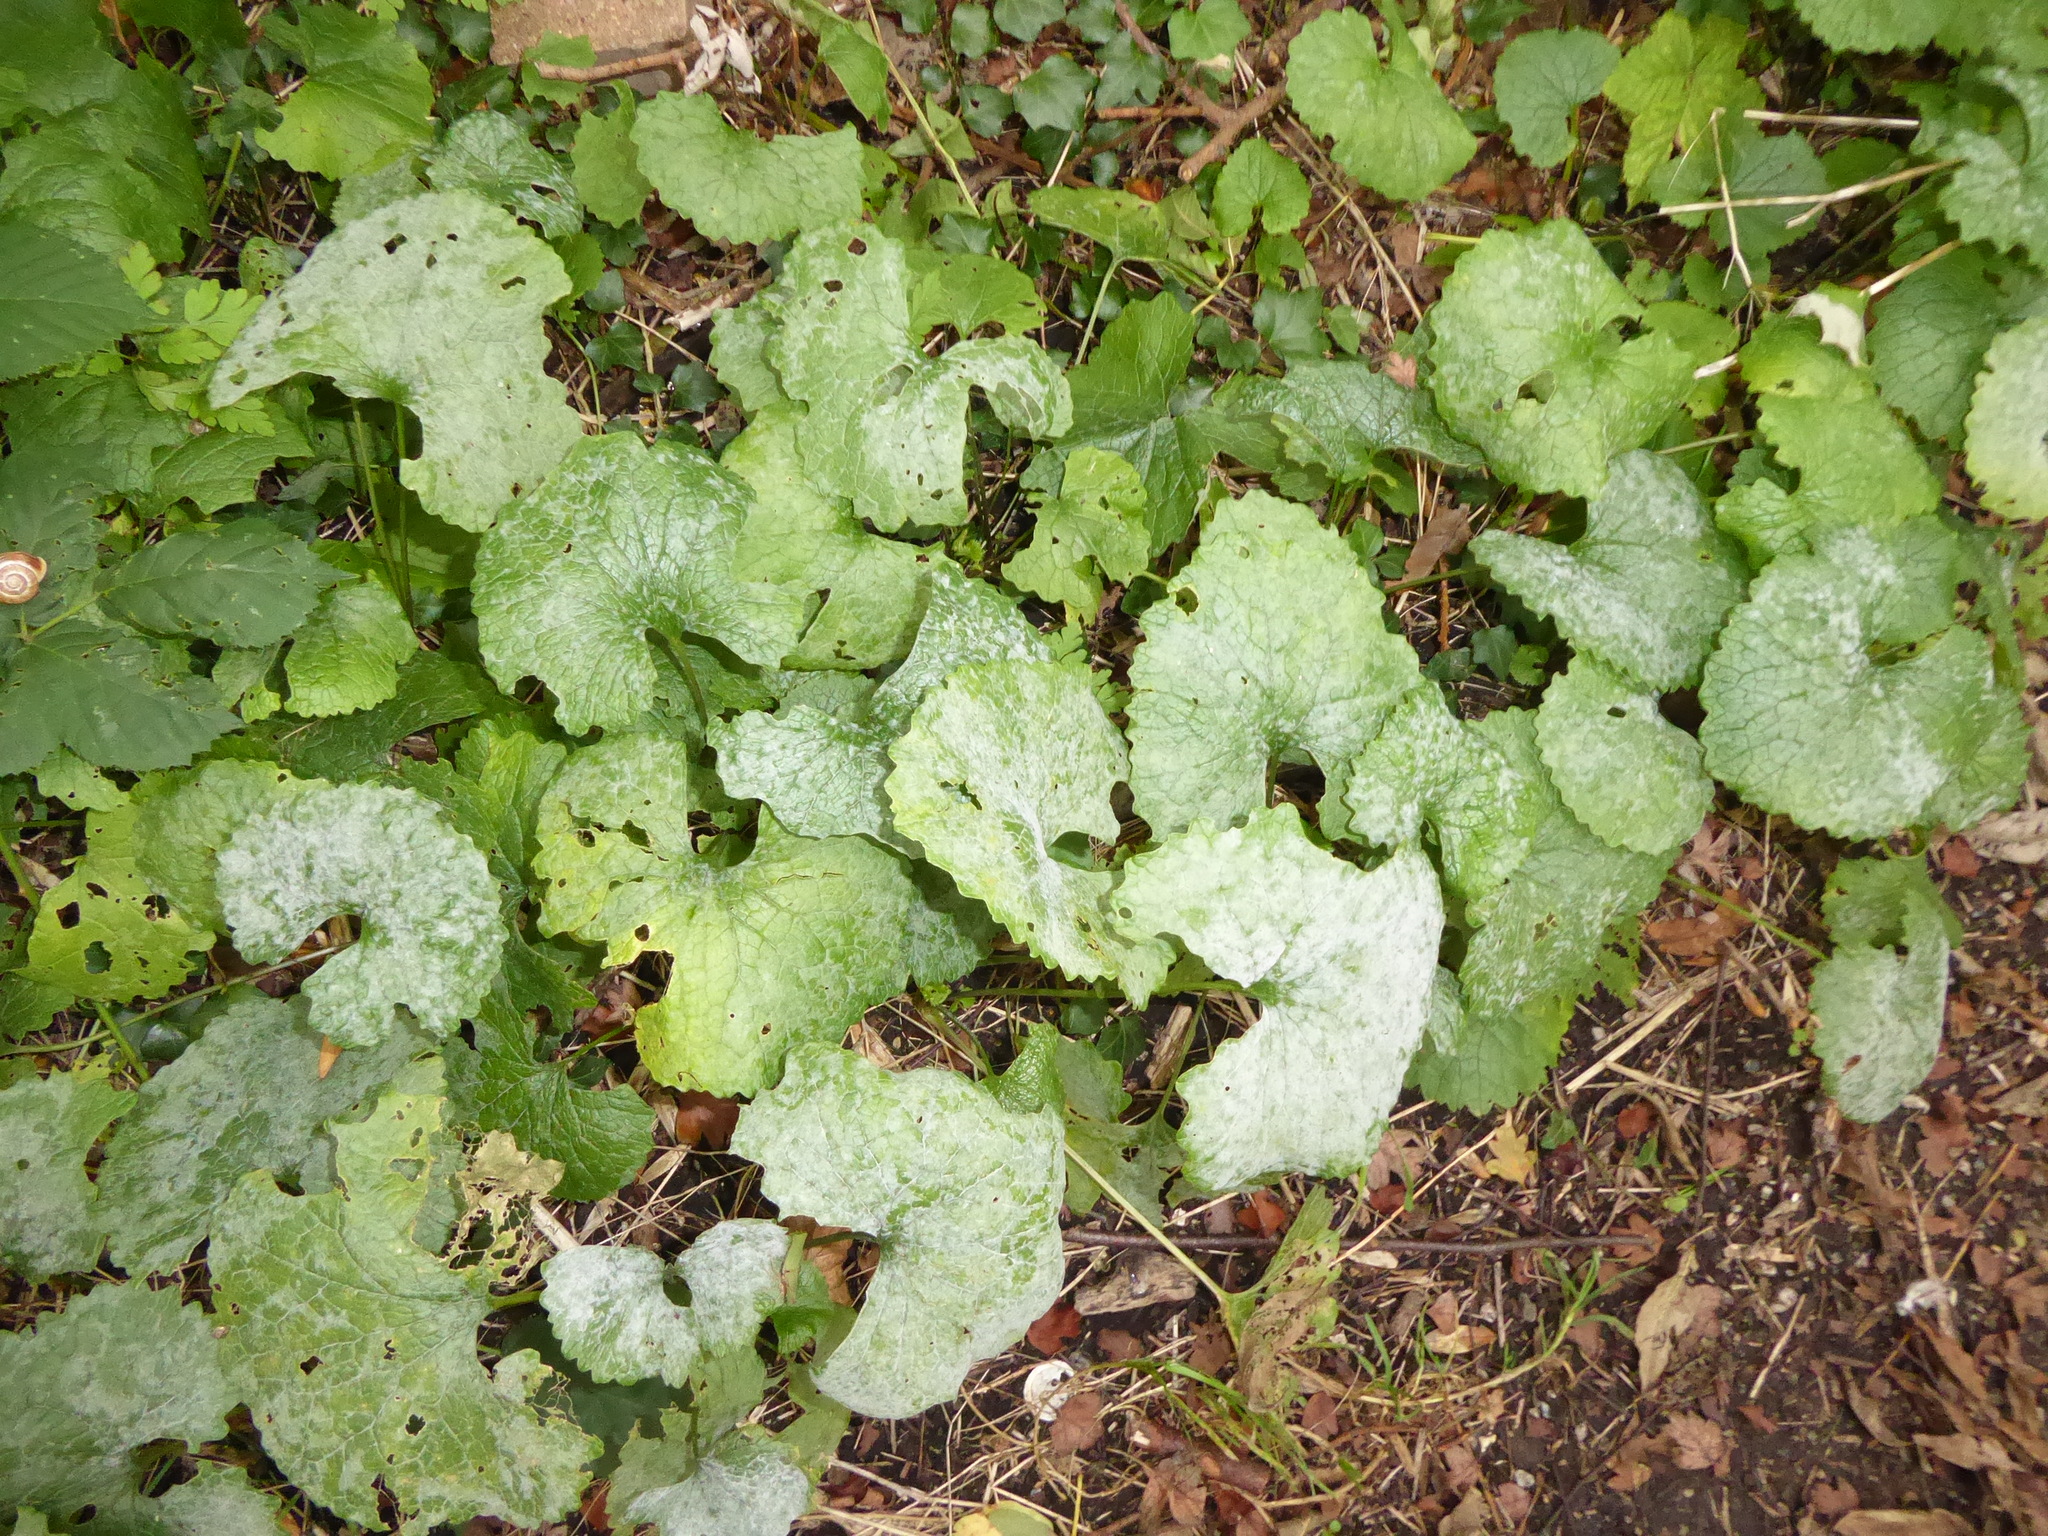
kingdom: Fungi
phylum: Ascomycota
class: Leotiomycetes
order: Helotiales
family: Erysiphaceae
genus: Erysiphe
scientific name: Erysiphe cruciferarum
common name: Brassica powdery mildew
